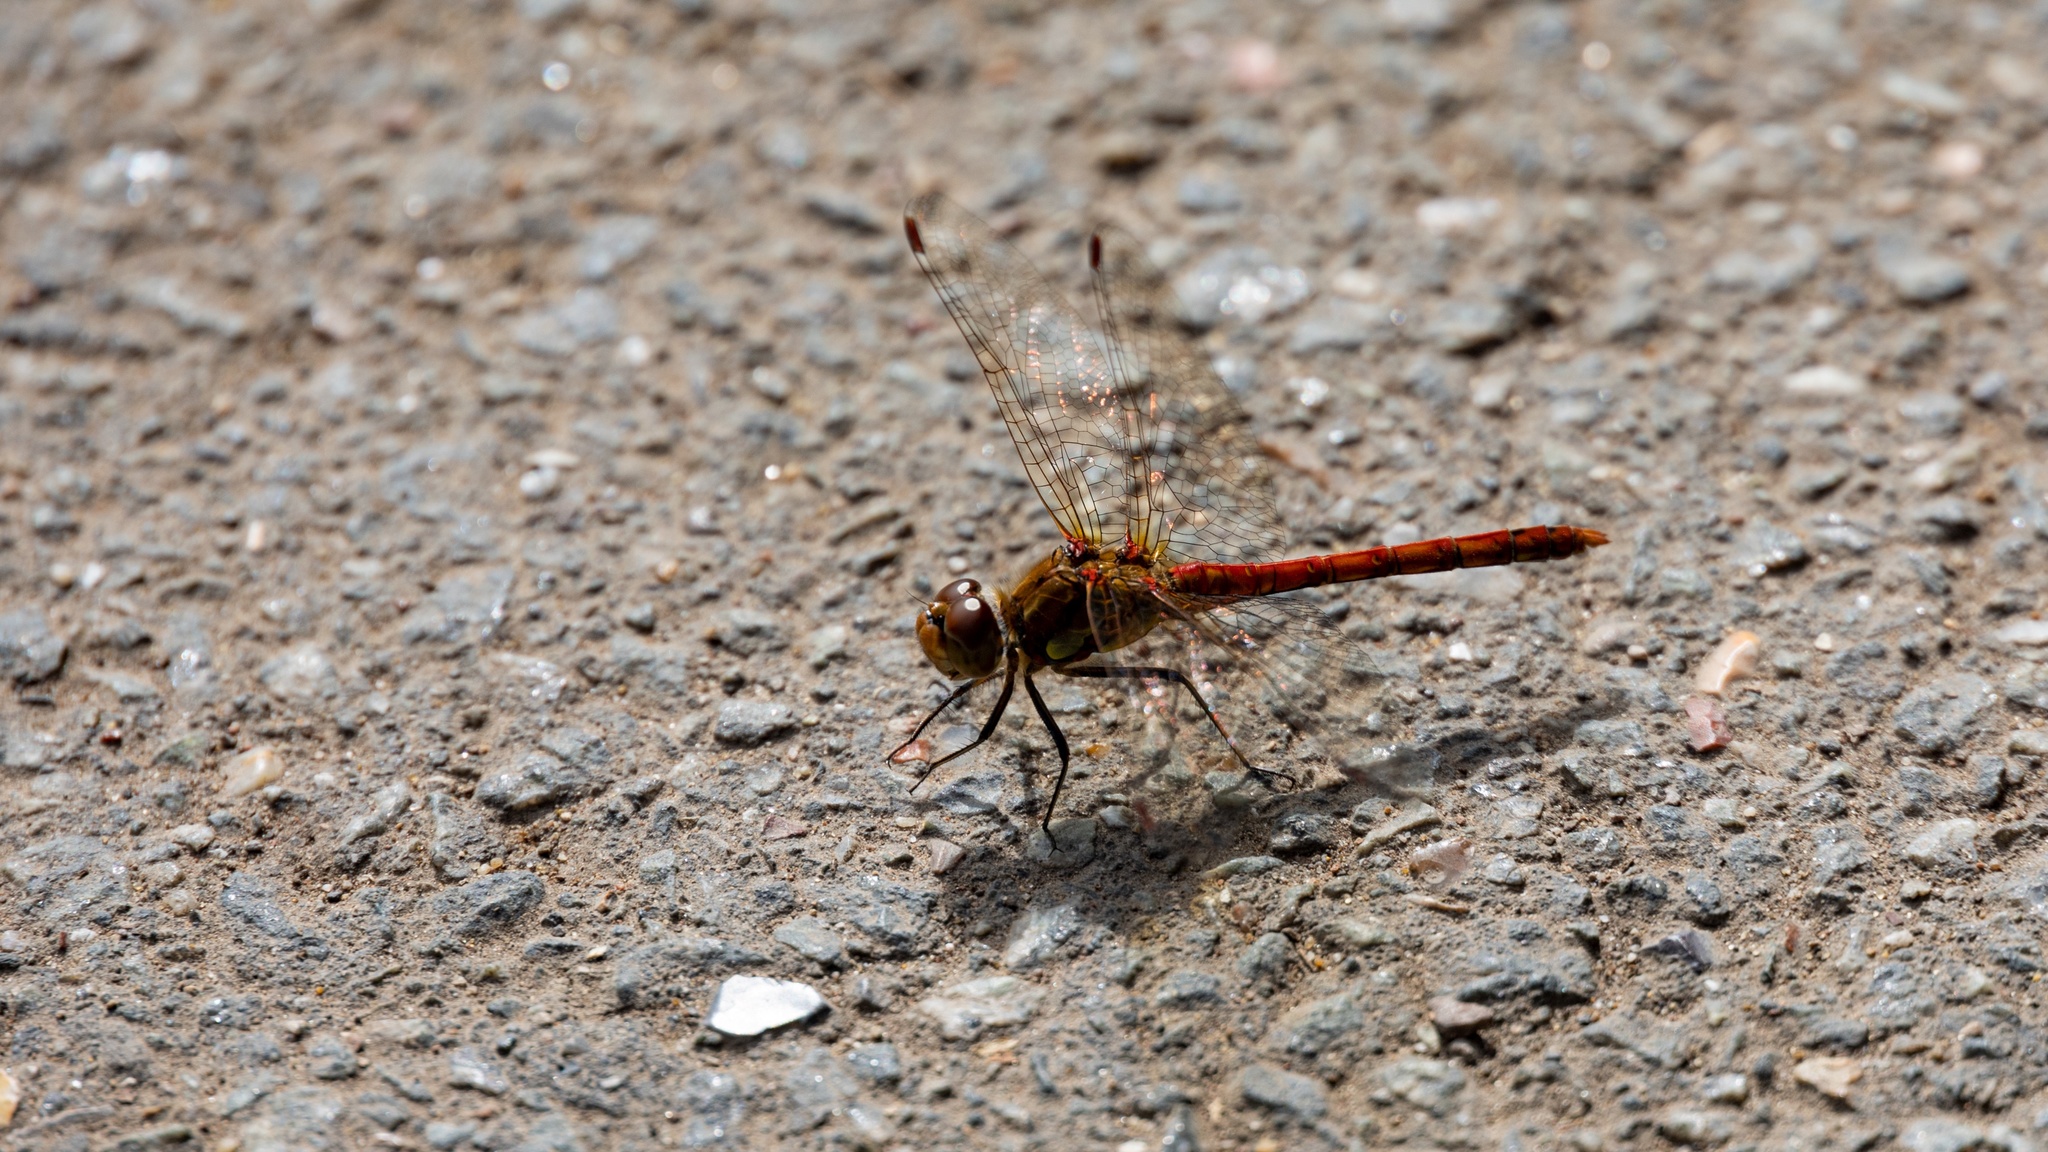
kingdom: Animalia
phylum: Arthropoda
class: Insecta
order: Odonata
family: Libellulidae
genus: Sympetrum
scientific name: Sympetrum striolatum
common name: Common darter
